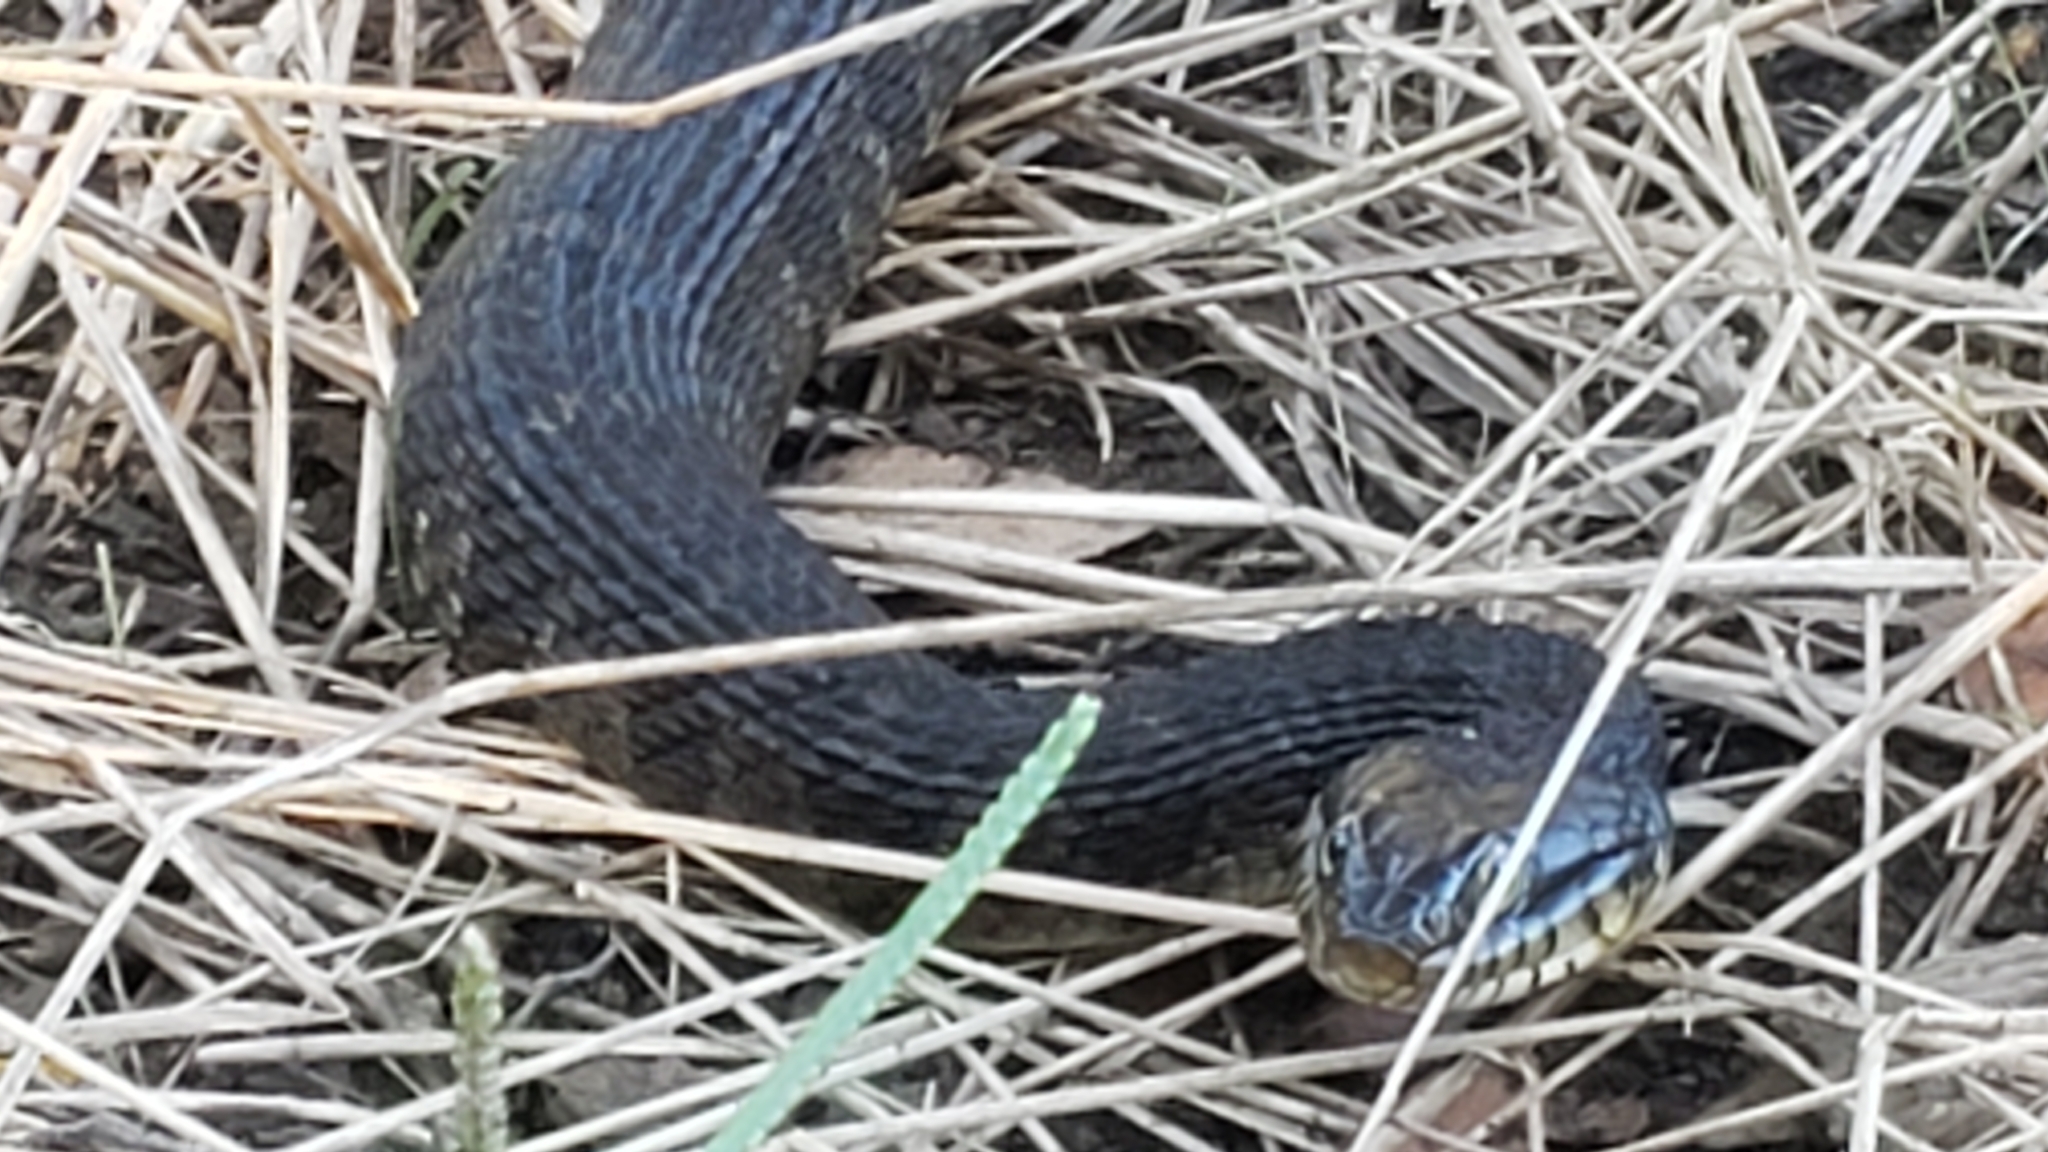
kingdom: Animalia
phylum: Chordata
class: Squamata
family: Colubridae
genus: Nerodia
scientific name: Nerodia erythrogaster
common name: Plainbelly water snake
